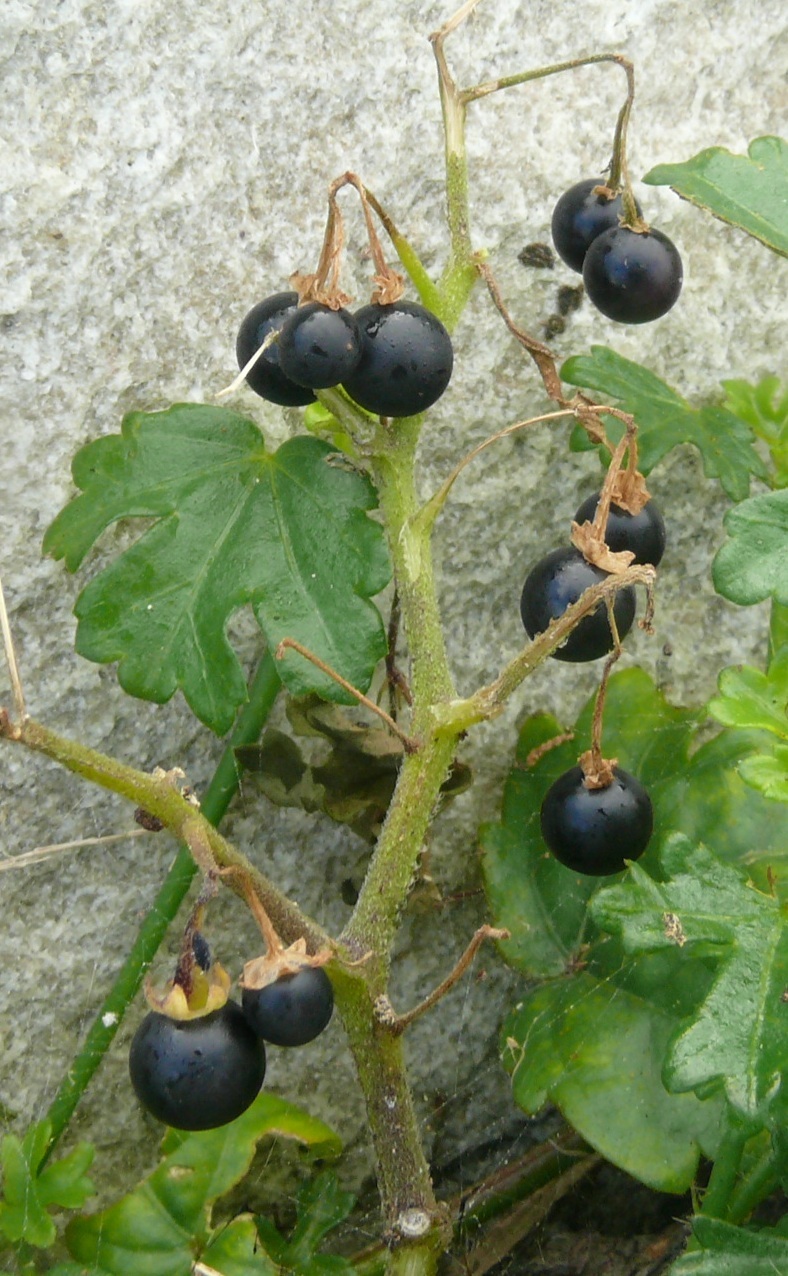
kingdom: Plantae
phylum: Tracheophyta
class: Magnoliopsida
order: Solanales
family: Solanaceae
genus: Solanum
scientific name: Solanum nigrum
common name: Black nightshade
